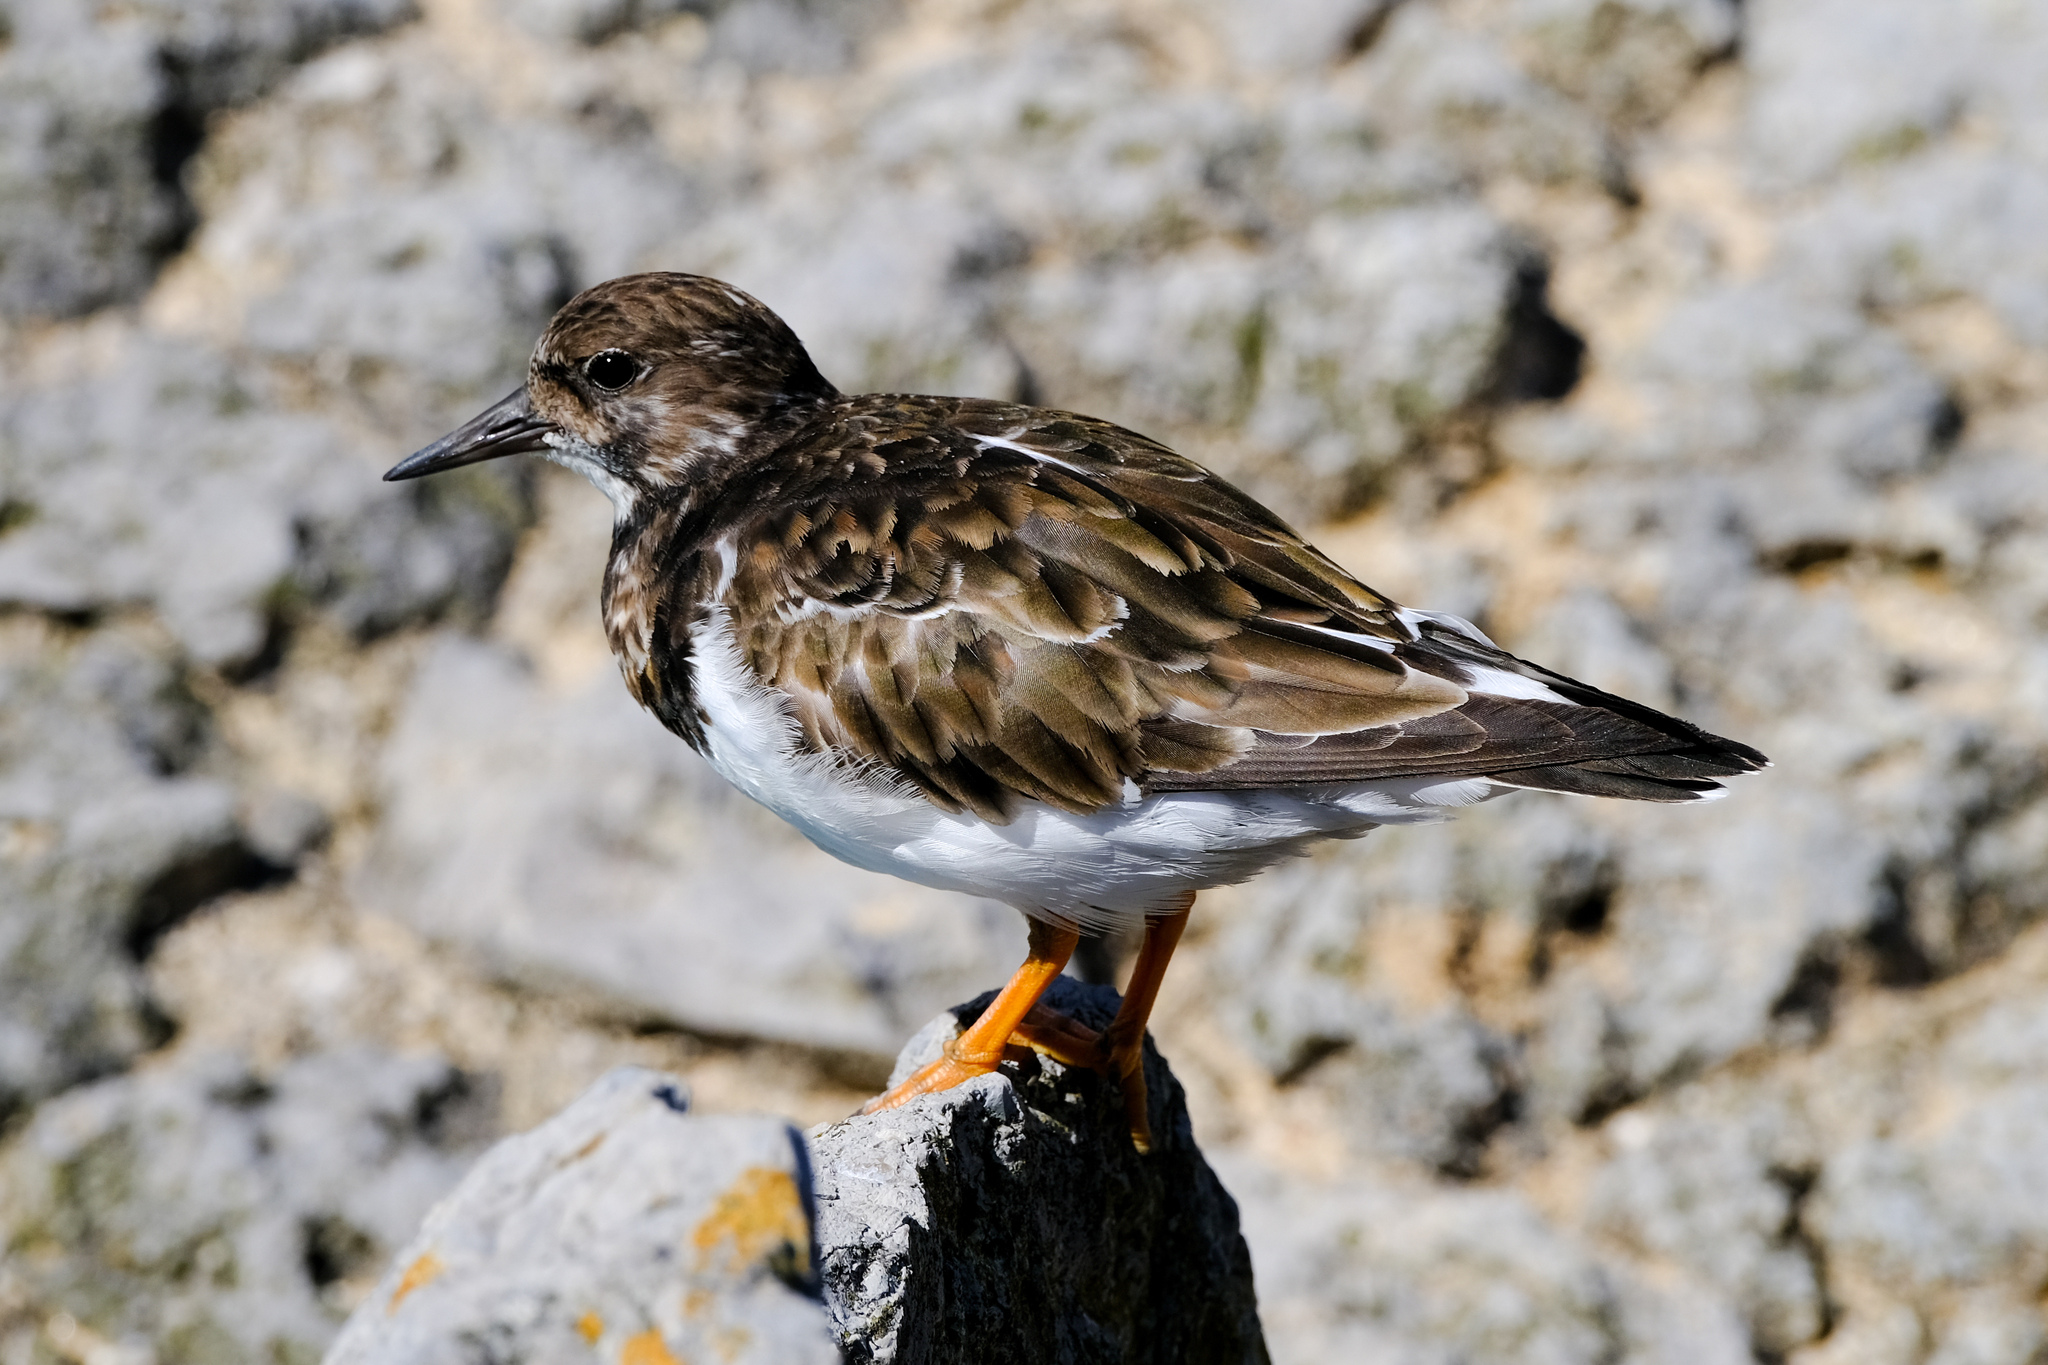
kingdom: Animalia
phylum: Chordata
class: Aves
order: Charadriiformes
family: Scolopacidae
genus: Arenaria
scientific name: Arenaria interpres
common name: Ruddy turnstone
